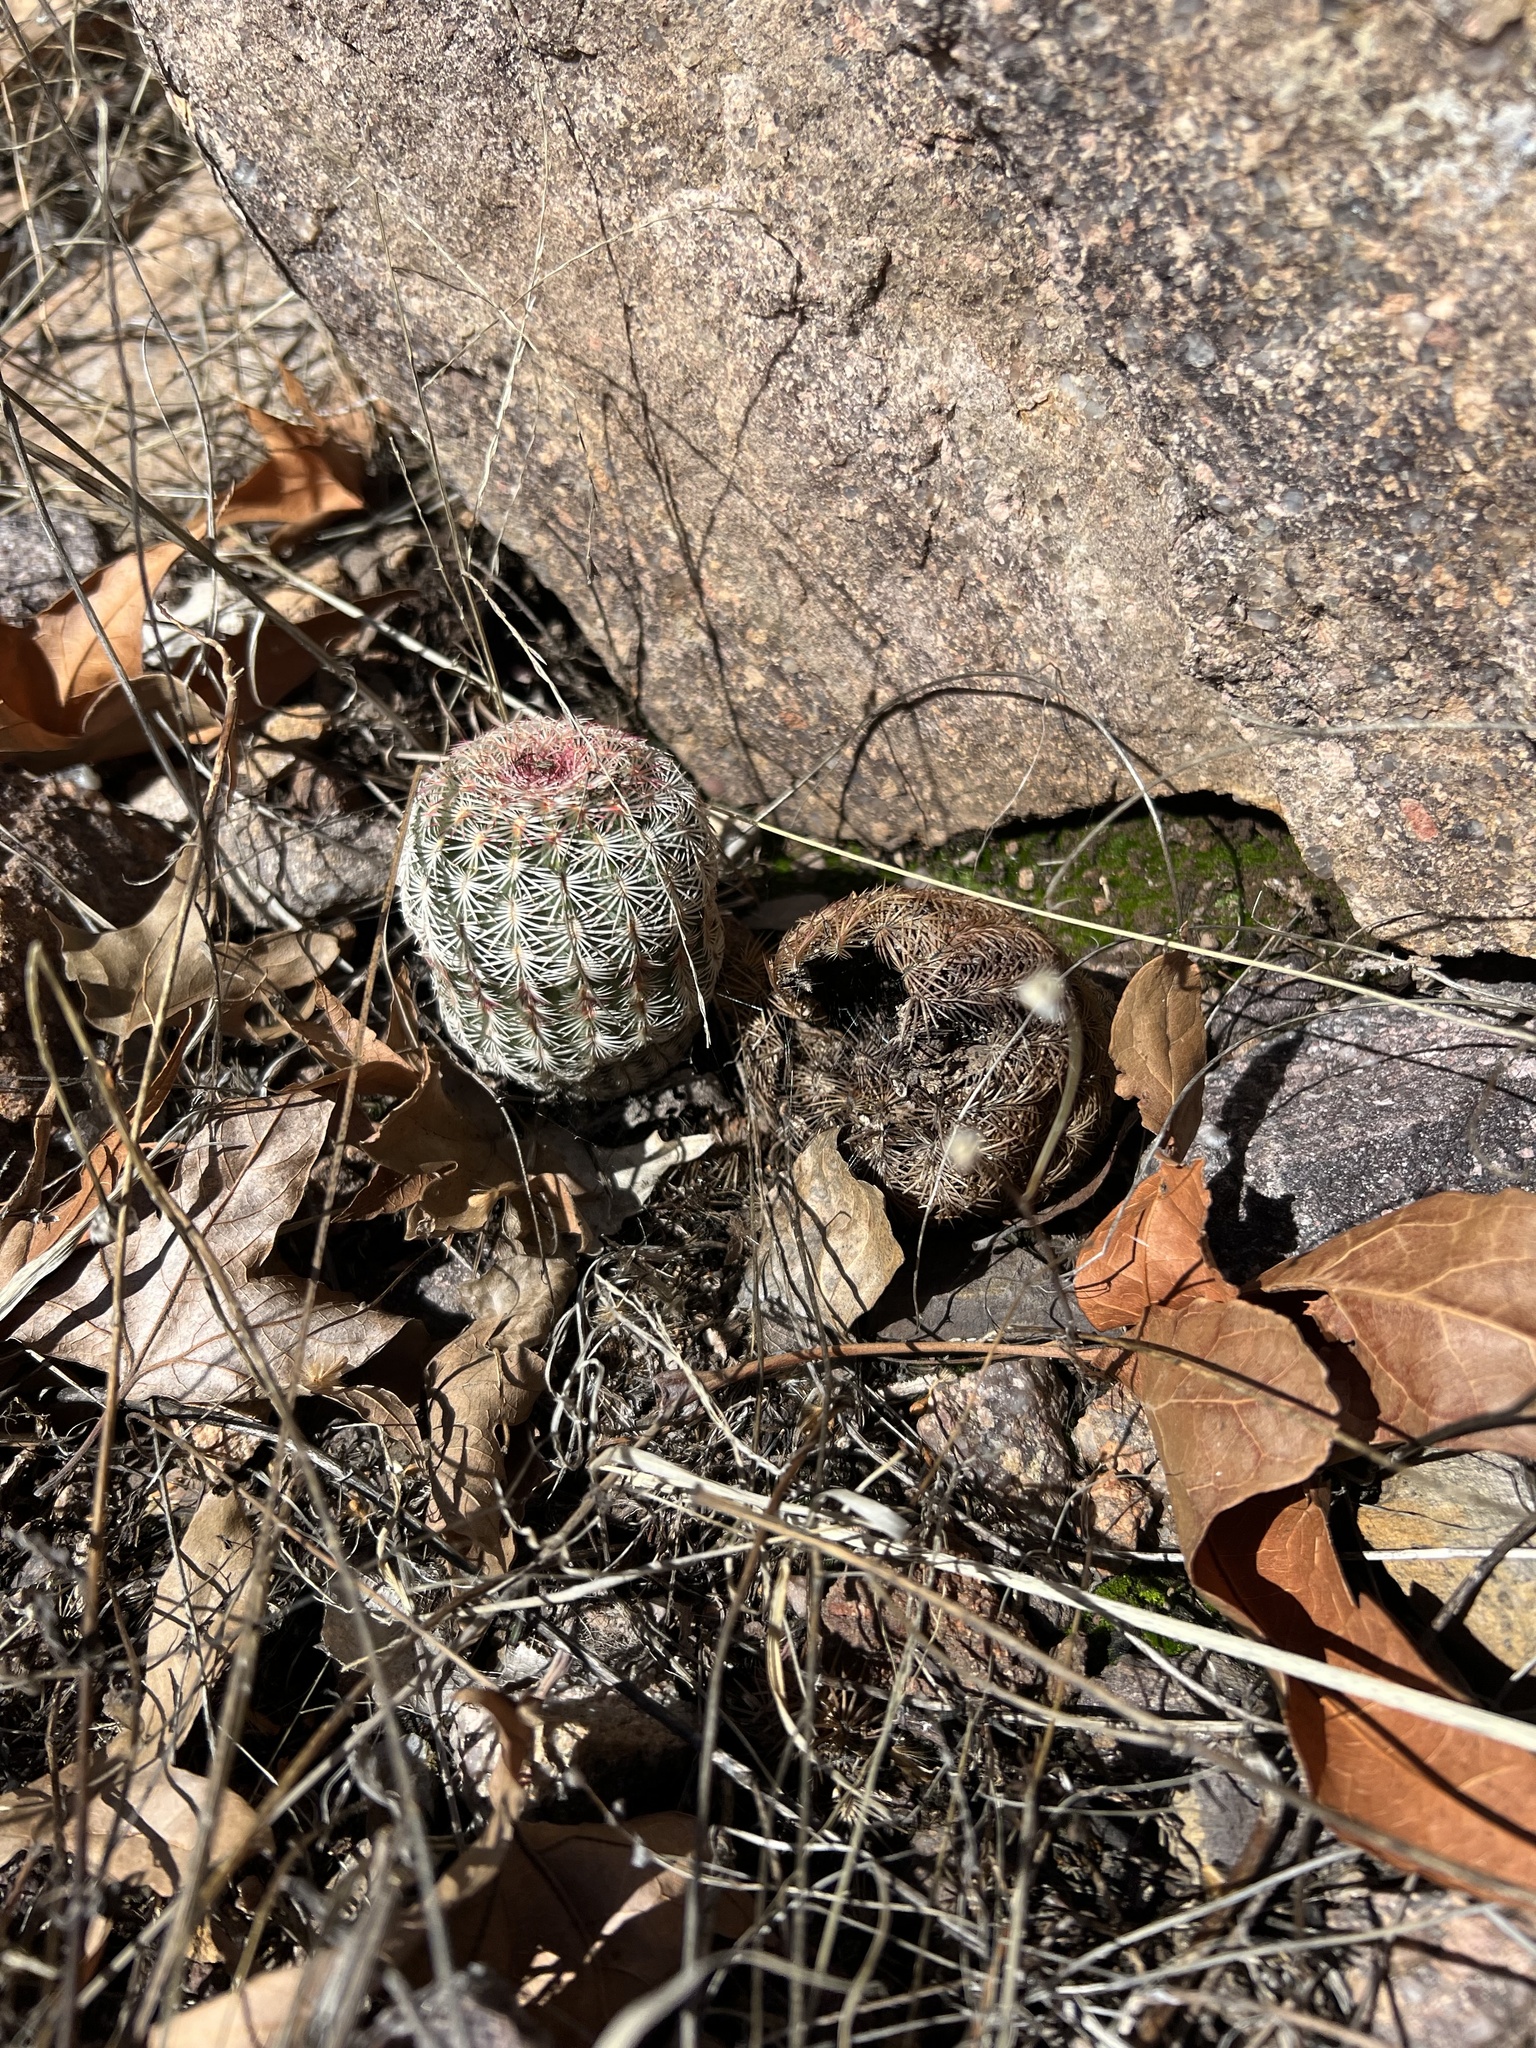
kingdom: Plantae
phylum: Tracheophyta
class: Magnoliopsida
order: Caryophyllales
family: Cactaceae
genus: Echinocereus
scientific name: Echinocereus rigidissimus
